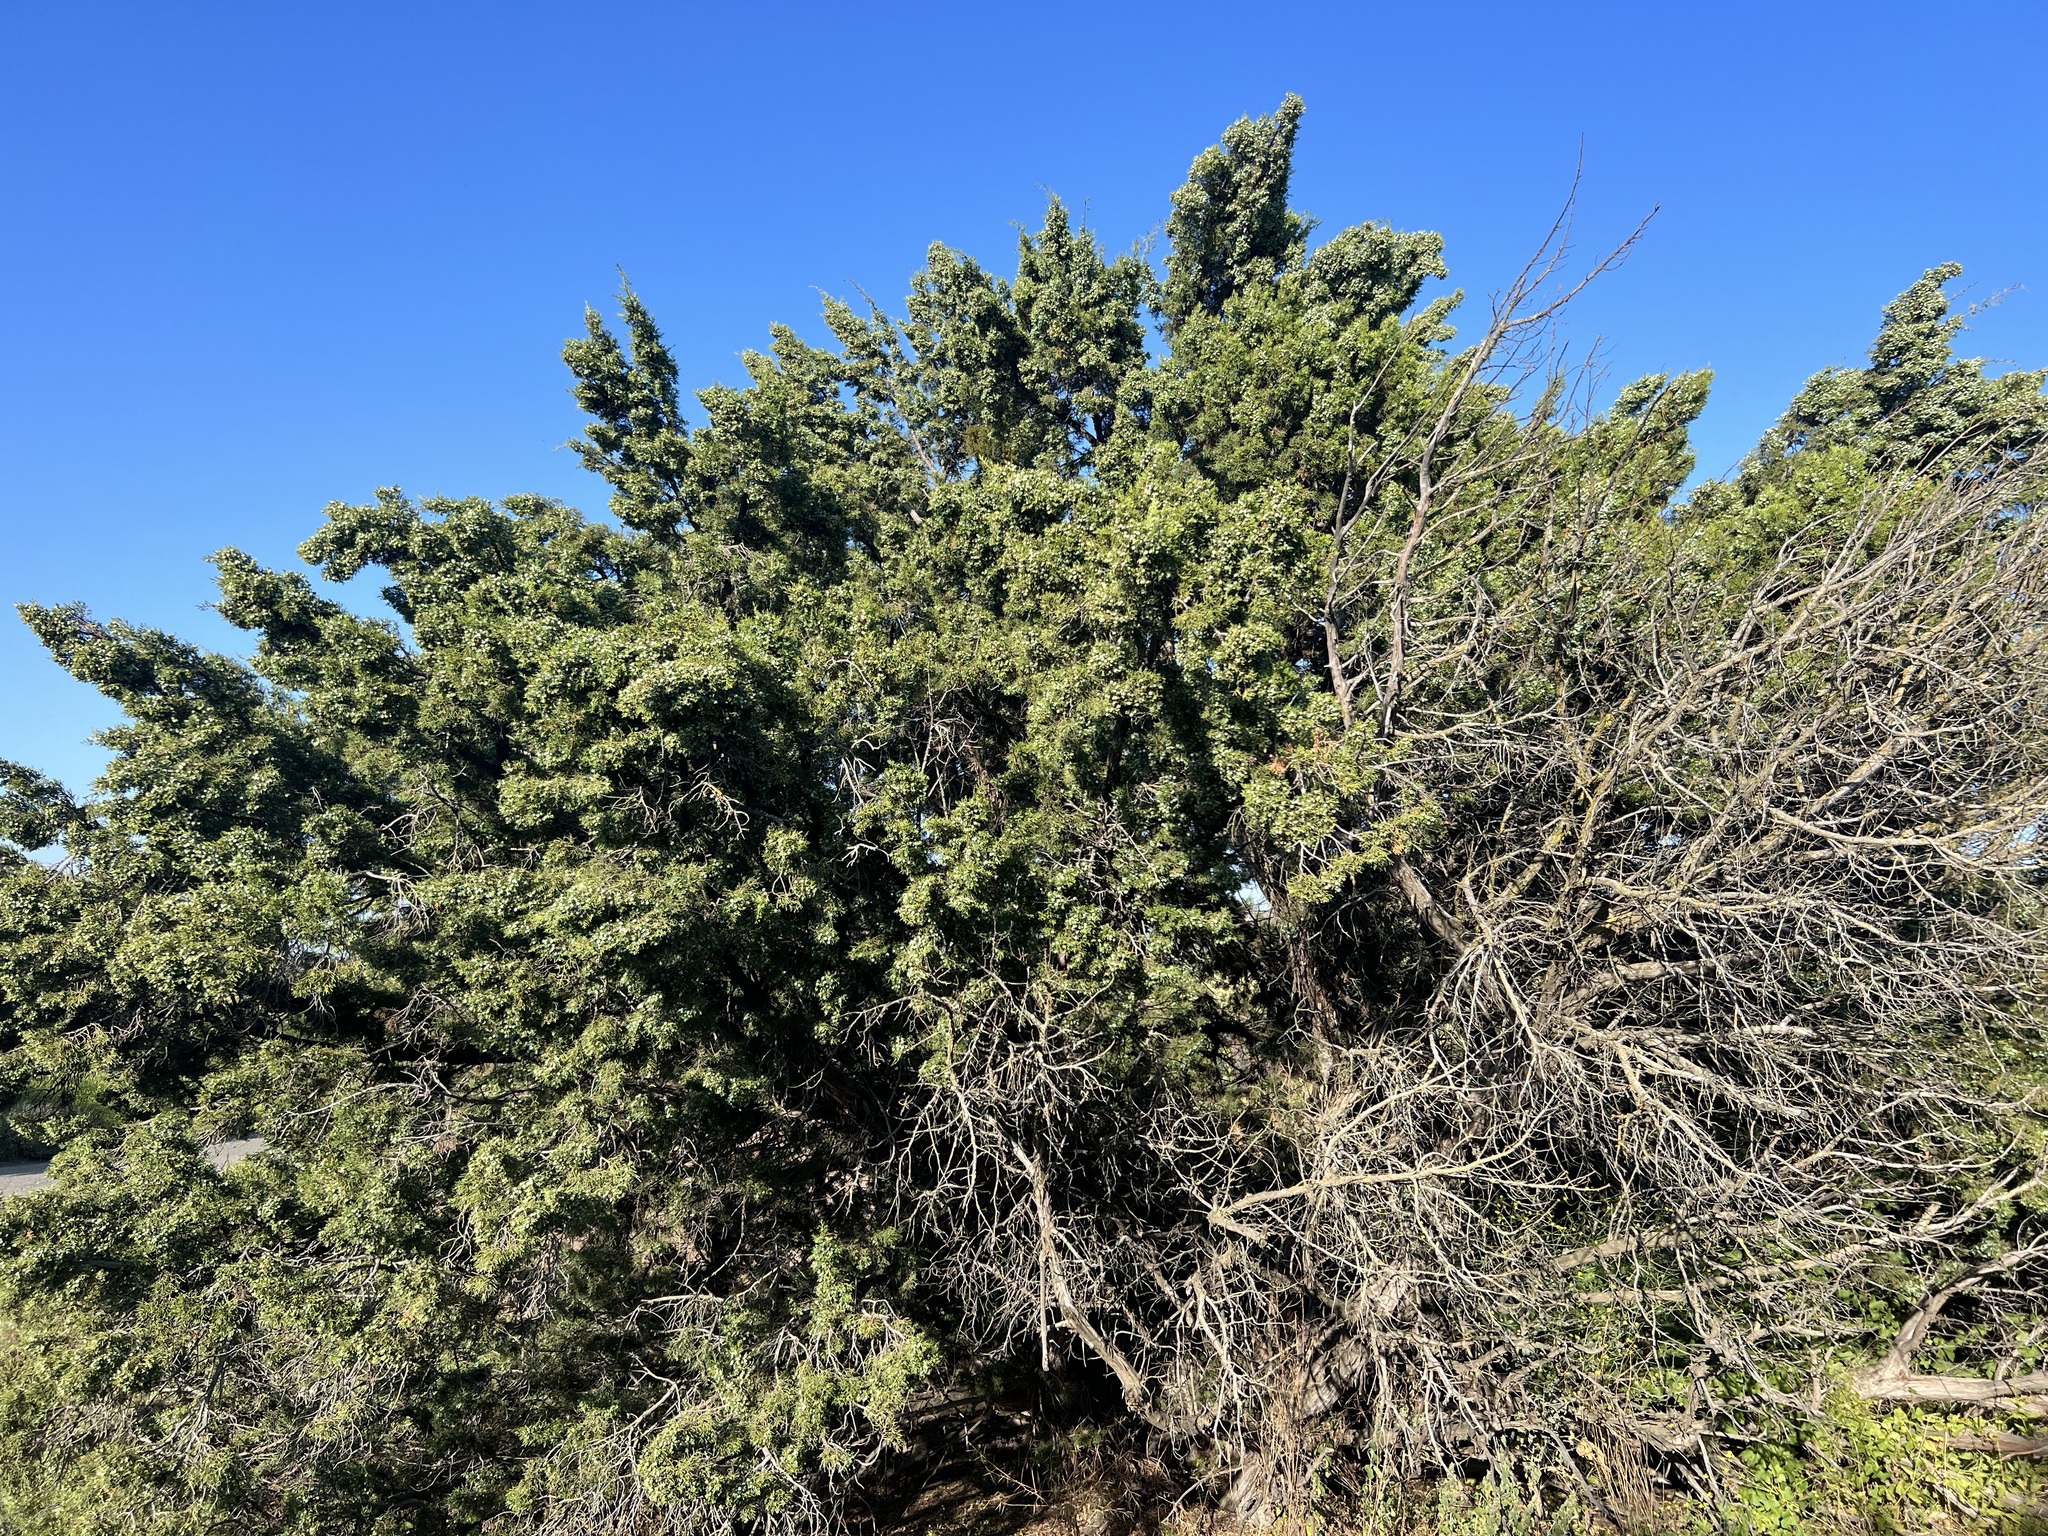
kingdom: Plantae
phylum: Tracheophyta
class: Pinopsida
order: Pinales
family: Cupressaceae
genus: Juniperus
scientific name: Juniperus californica
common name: California juniper
